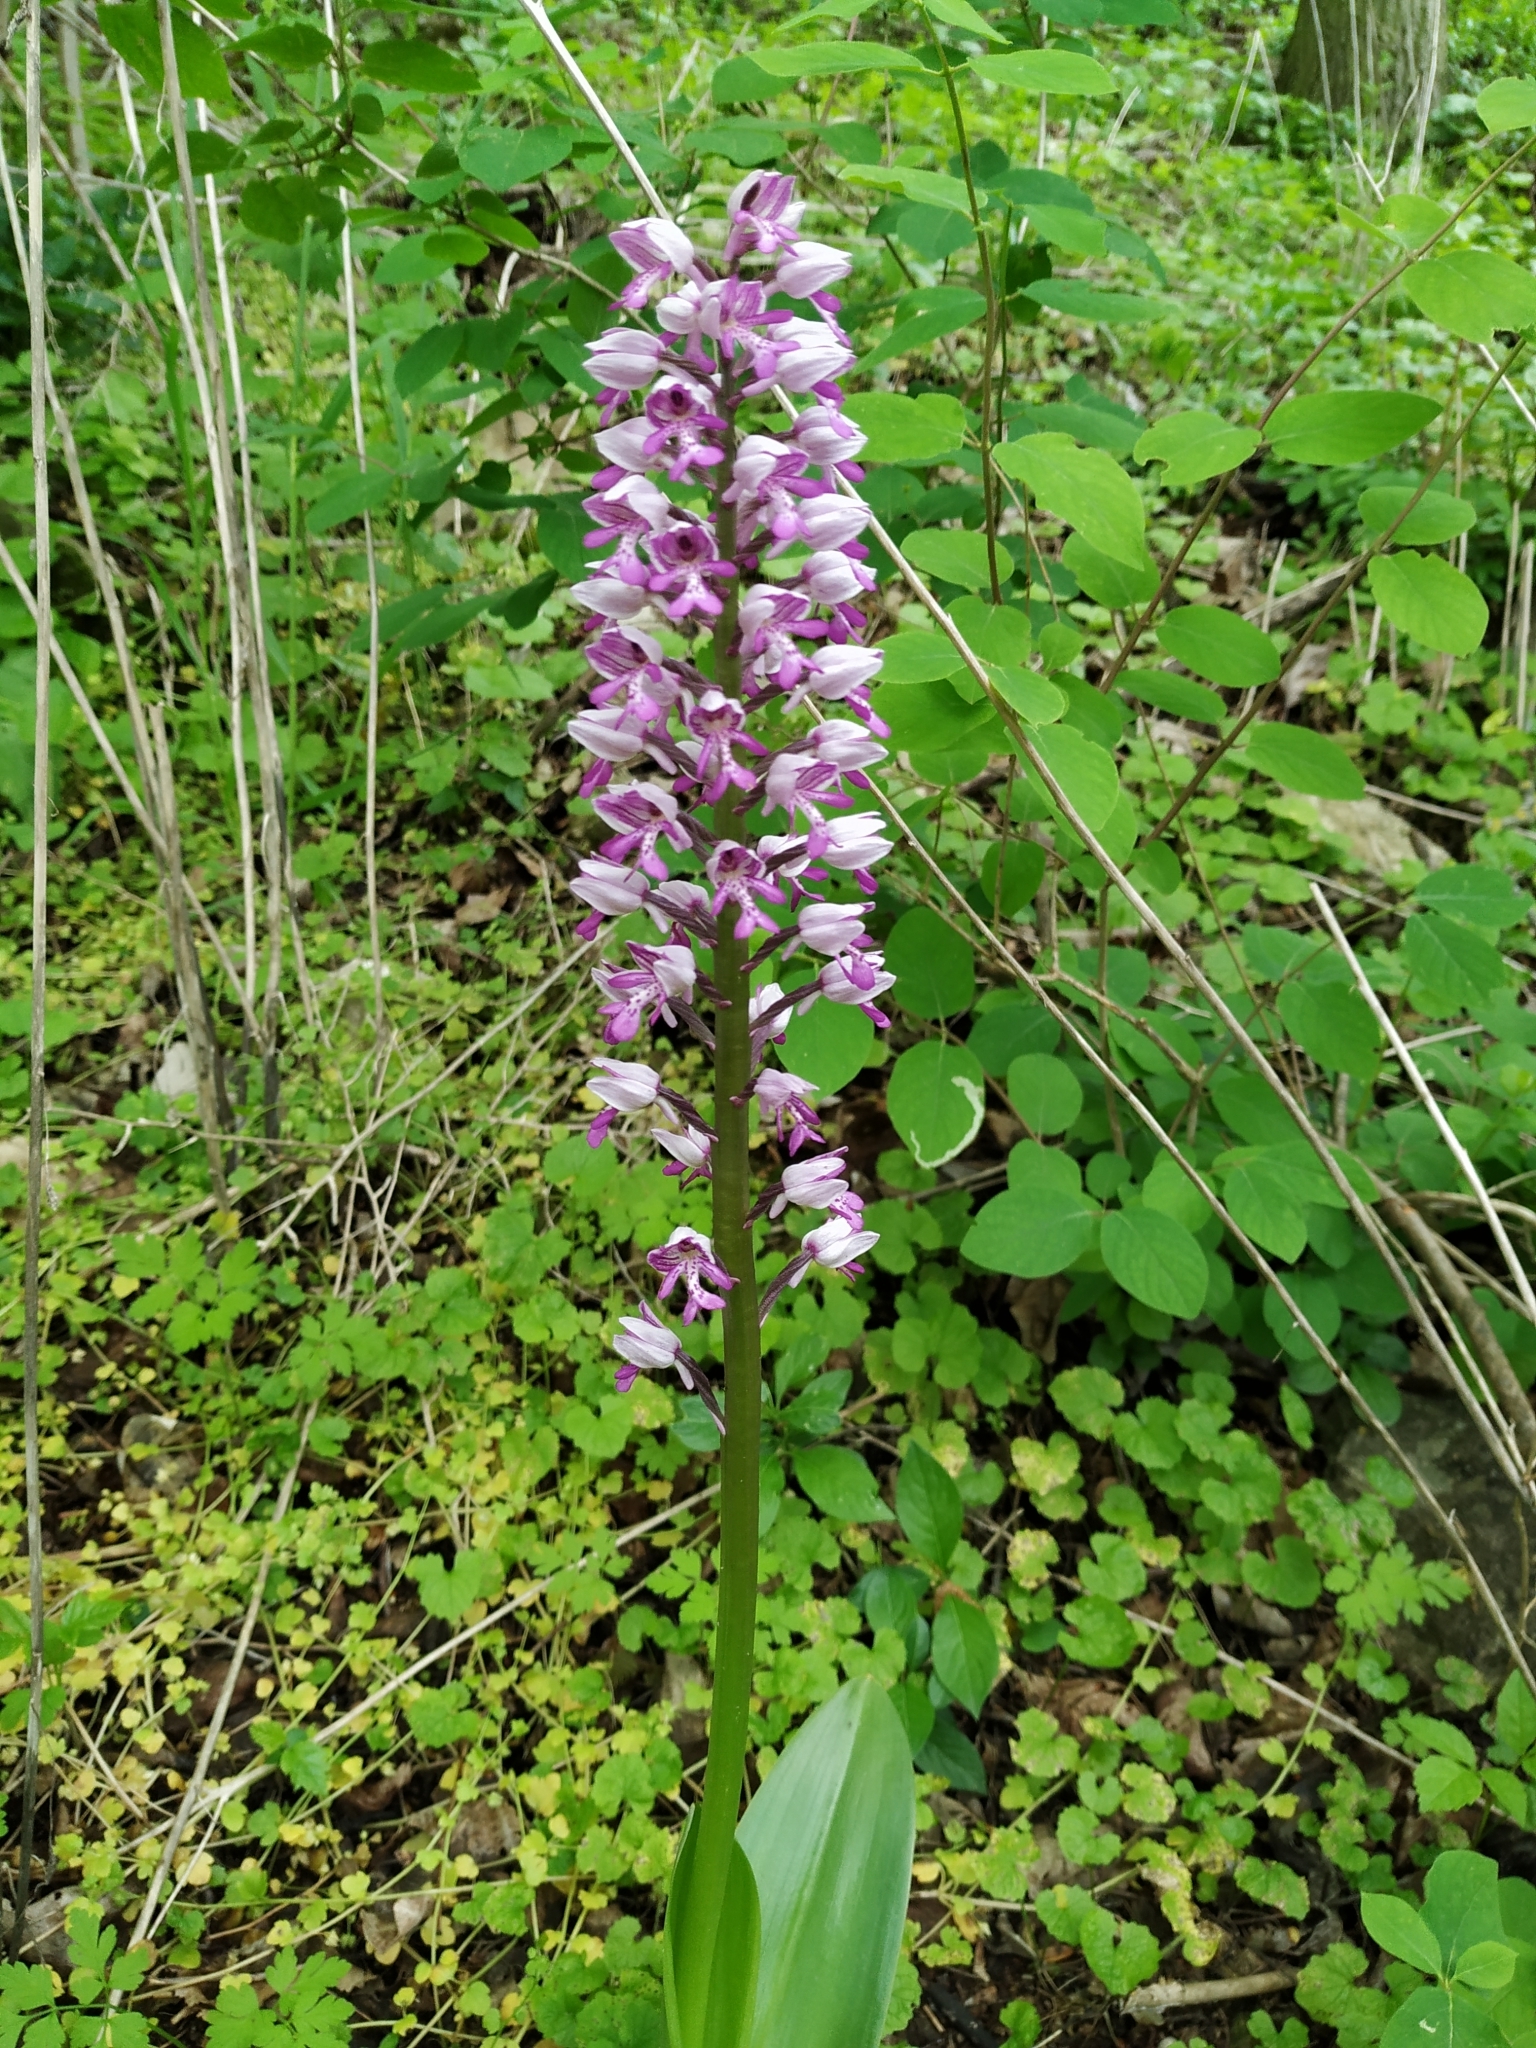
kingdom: Plantae
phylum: Tracheophyta
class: Liliopsida
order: Asparagales
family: Orchidaceae
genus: Orchis
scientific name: Orchis militaris
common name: Military orchid
